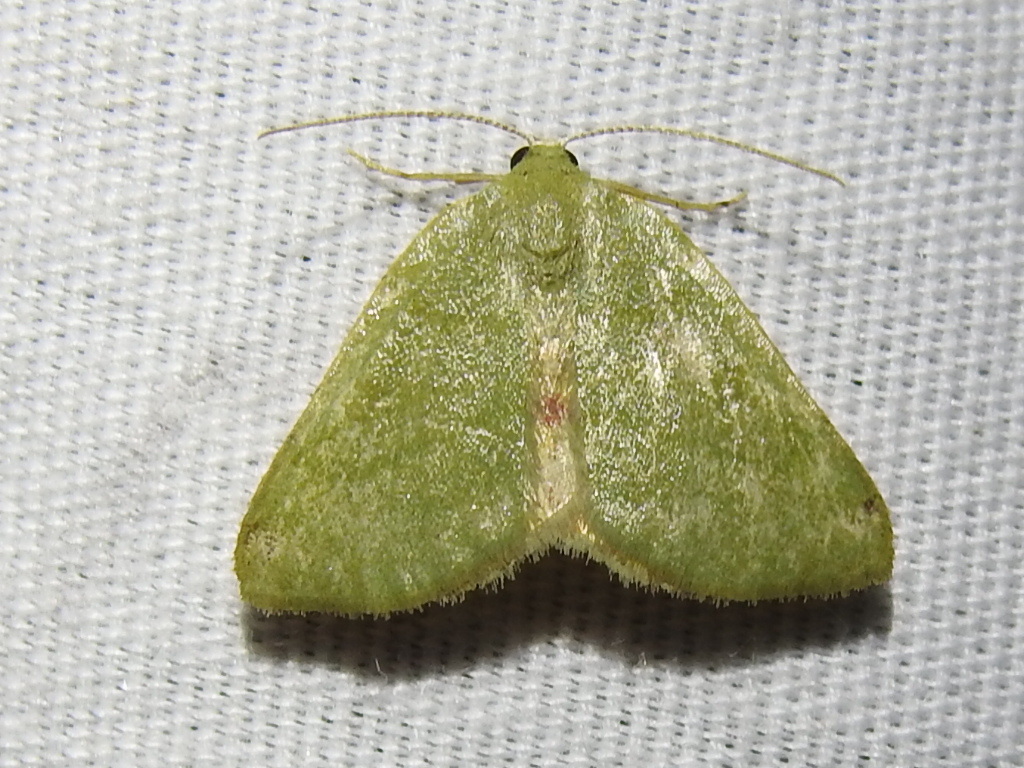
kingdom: Animalia
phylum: Arthropoda
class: Insecta
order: Lepidoptera
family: Geometridae
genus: Chloraspilates
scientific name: Chloraspilates bicoloraria
